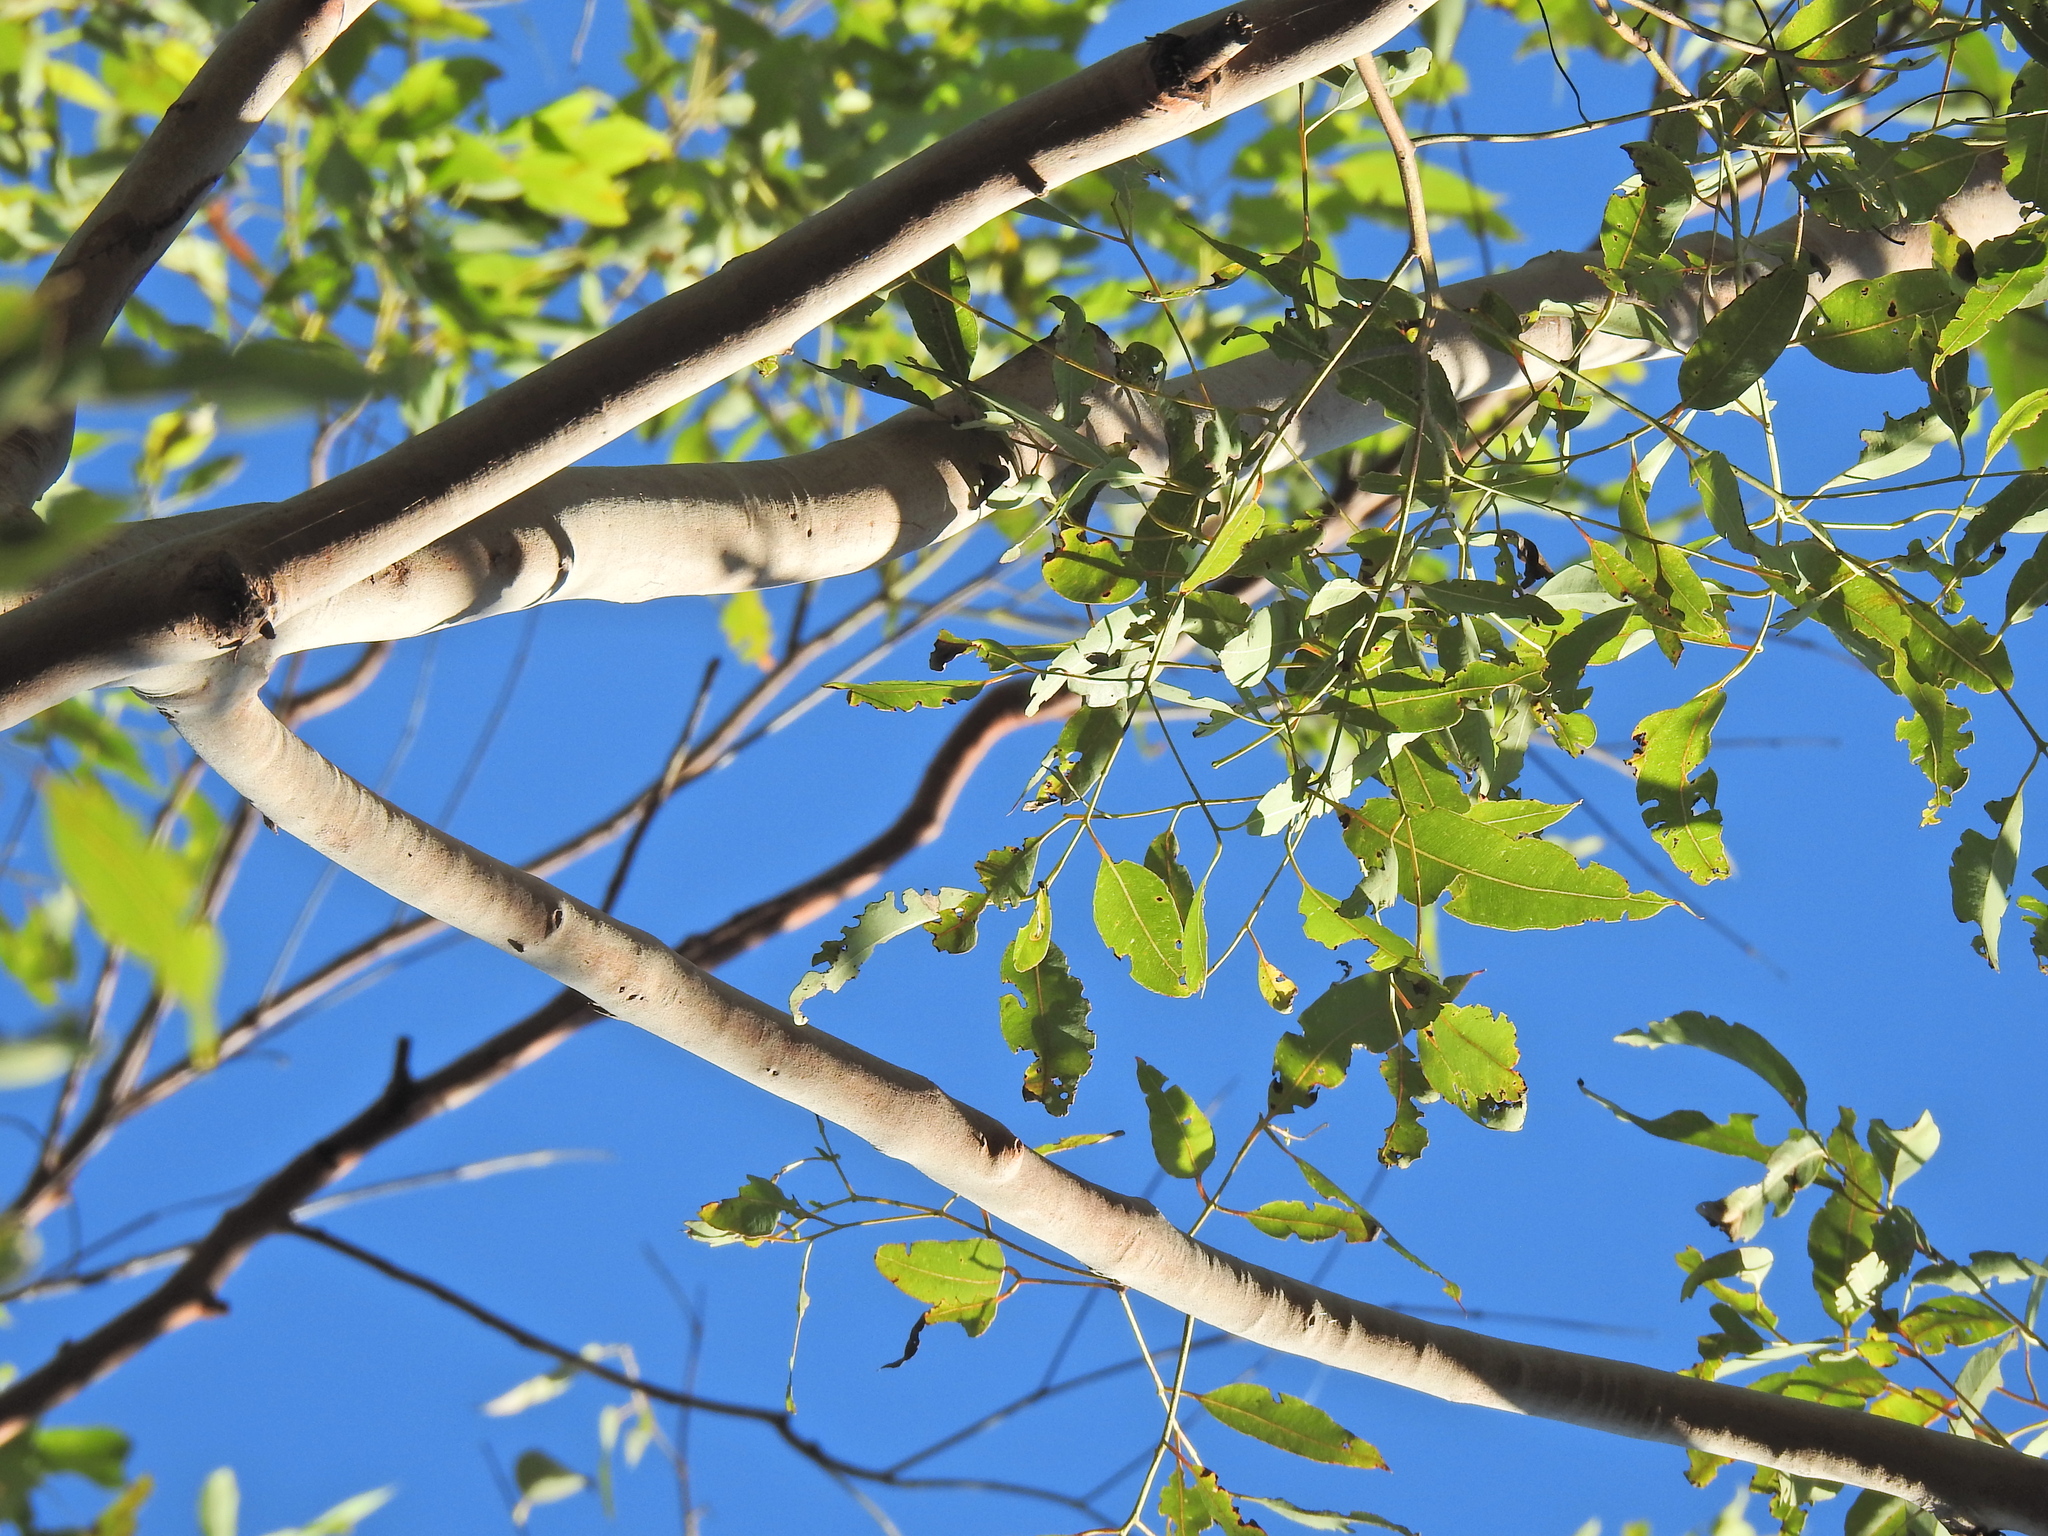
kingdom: Plantae
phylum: Tracheophyta
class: Magnoliopsida
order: Myrtales
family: Myrtaceae
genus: Angophora
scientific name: Angophora leiocarpa
